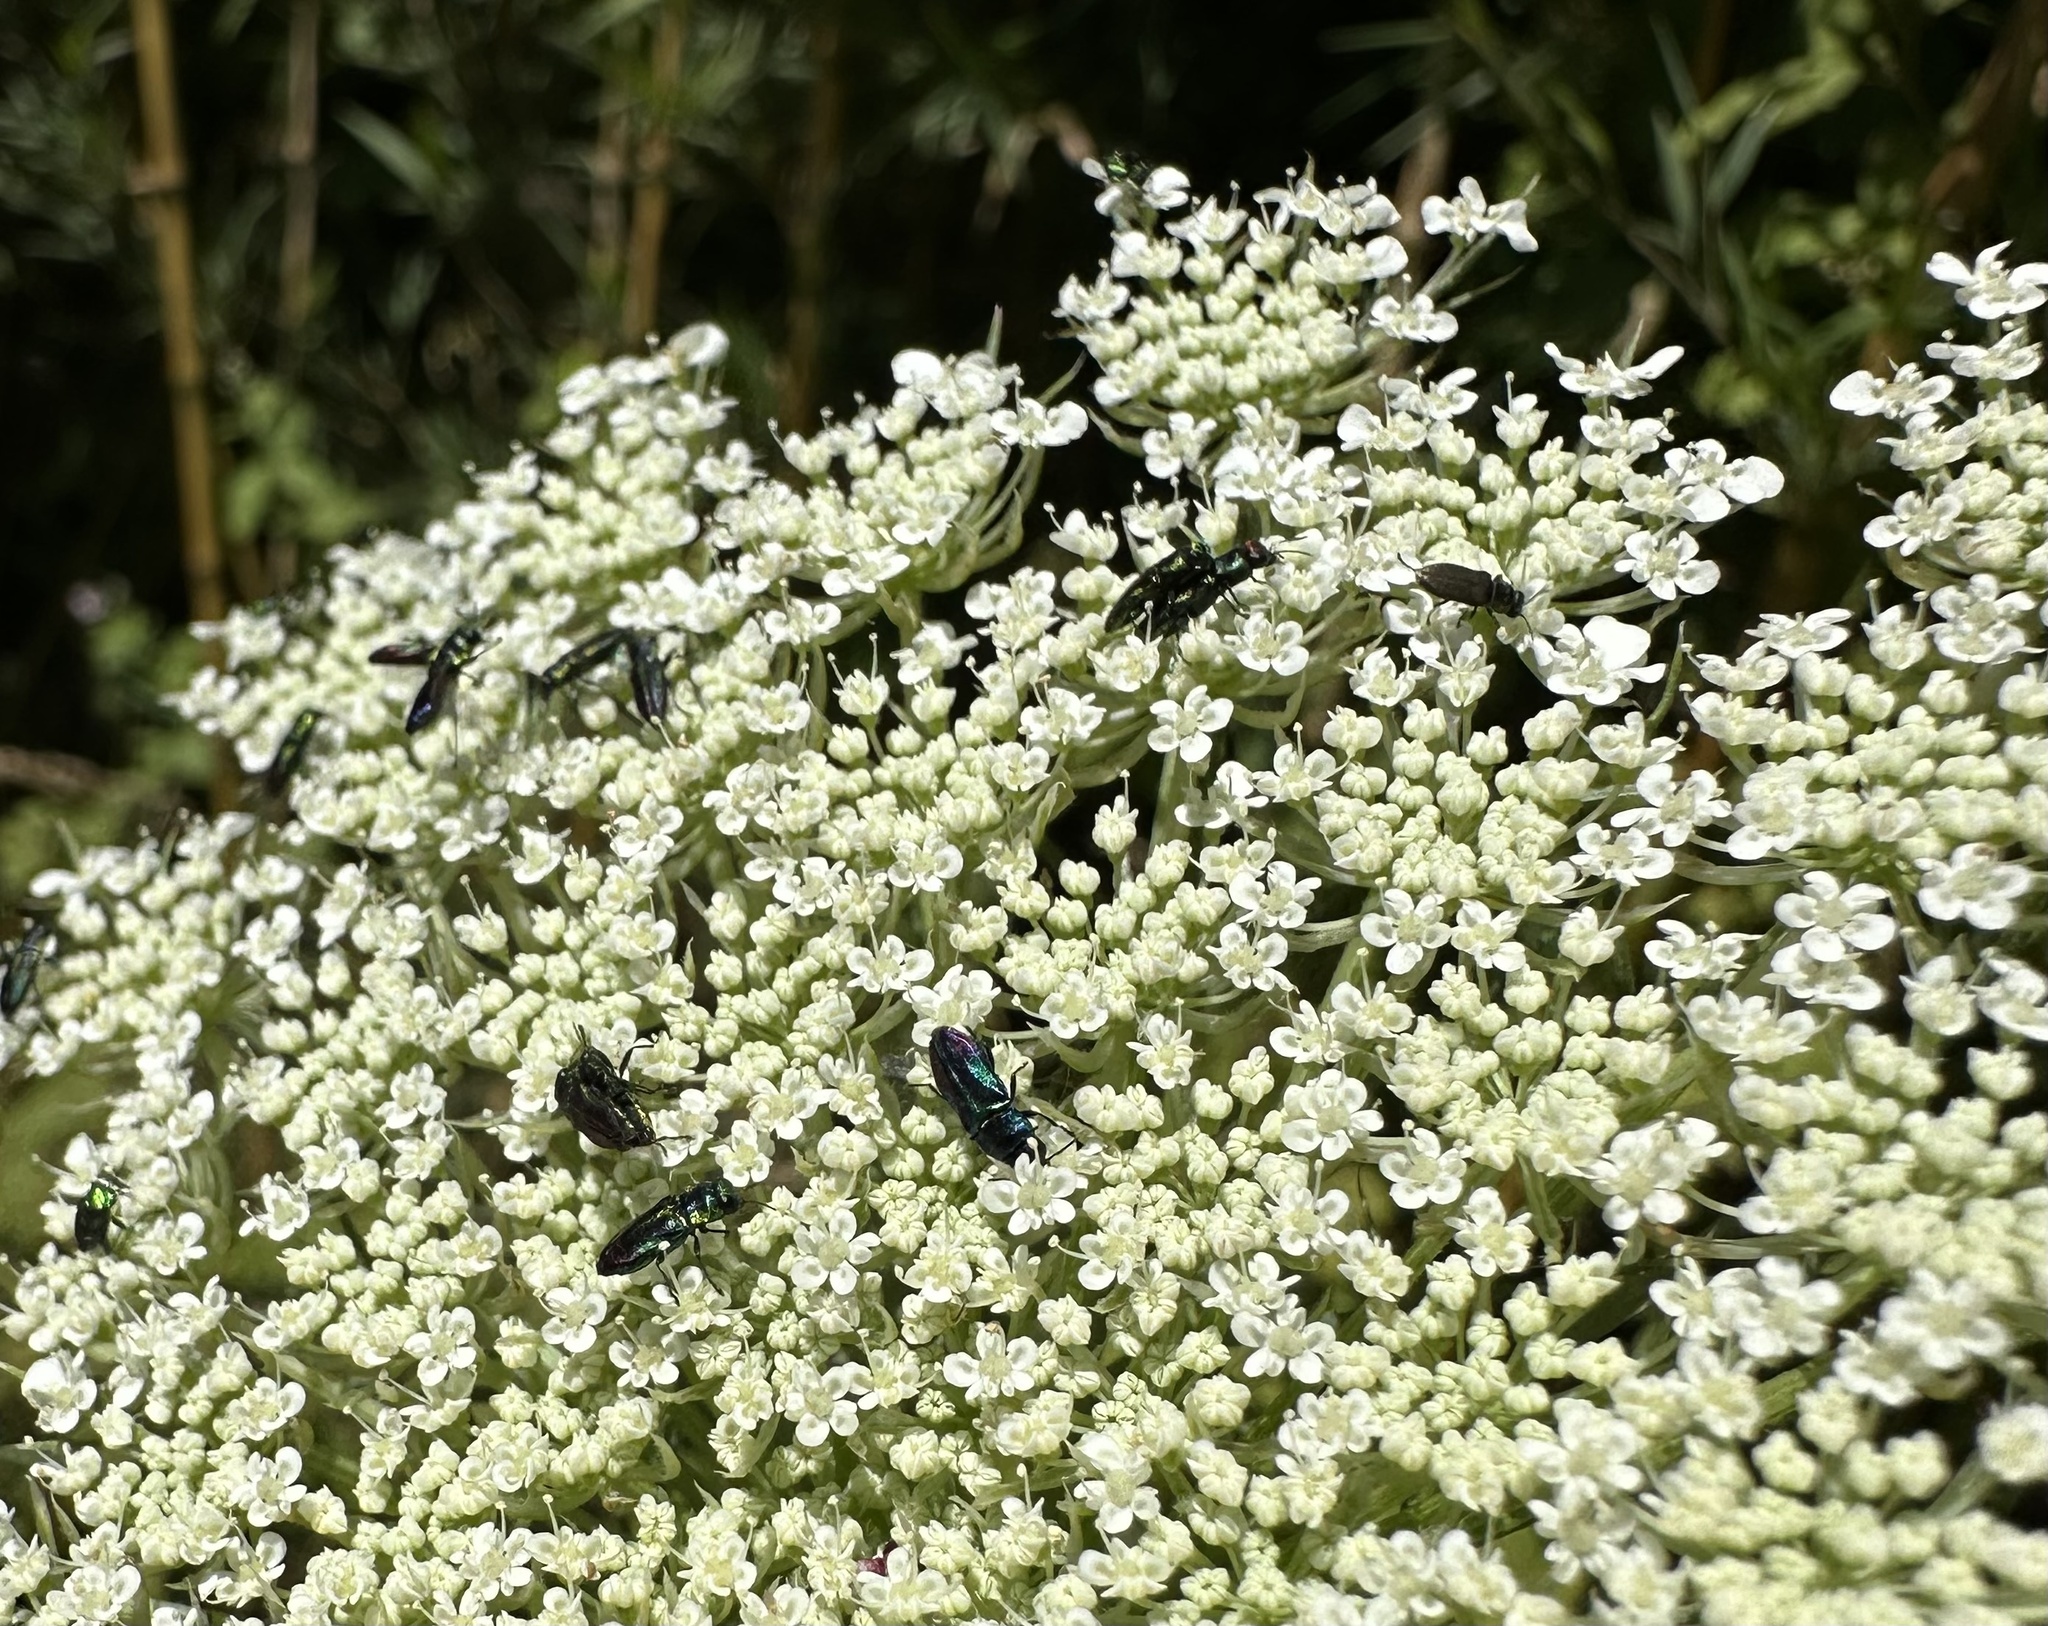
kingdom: Animalia
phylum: Arthropoda
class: Insecta
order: Coleoptera
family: Buprestidae
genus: Bilyaxia
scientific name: Bilyaxia concinna
